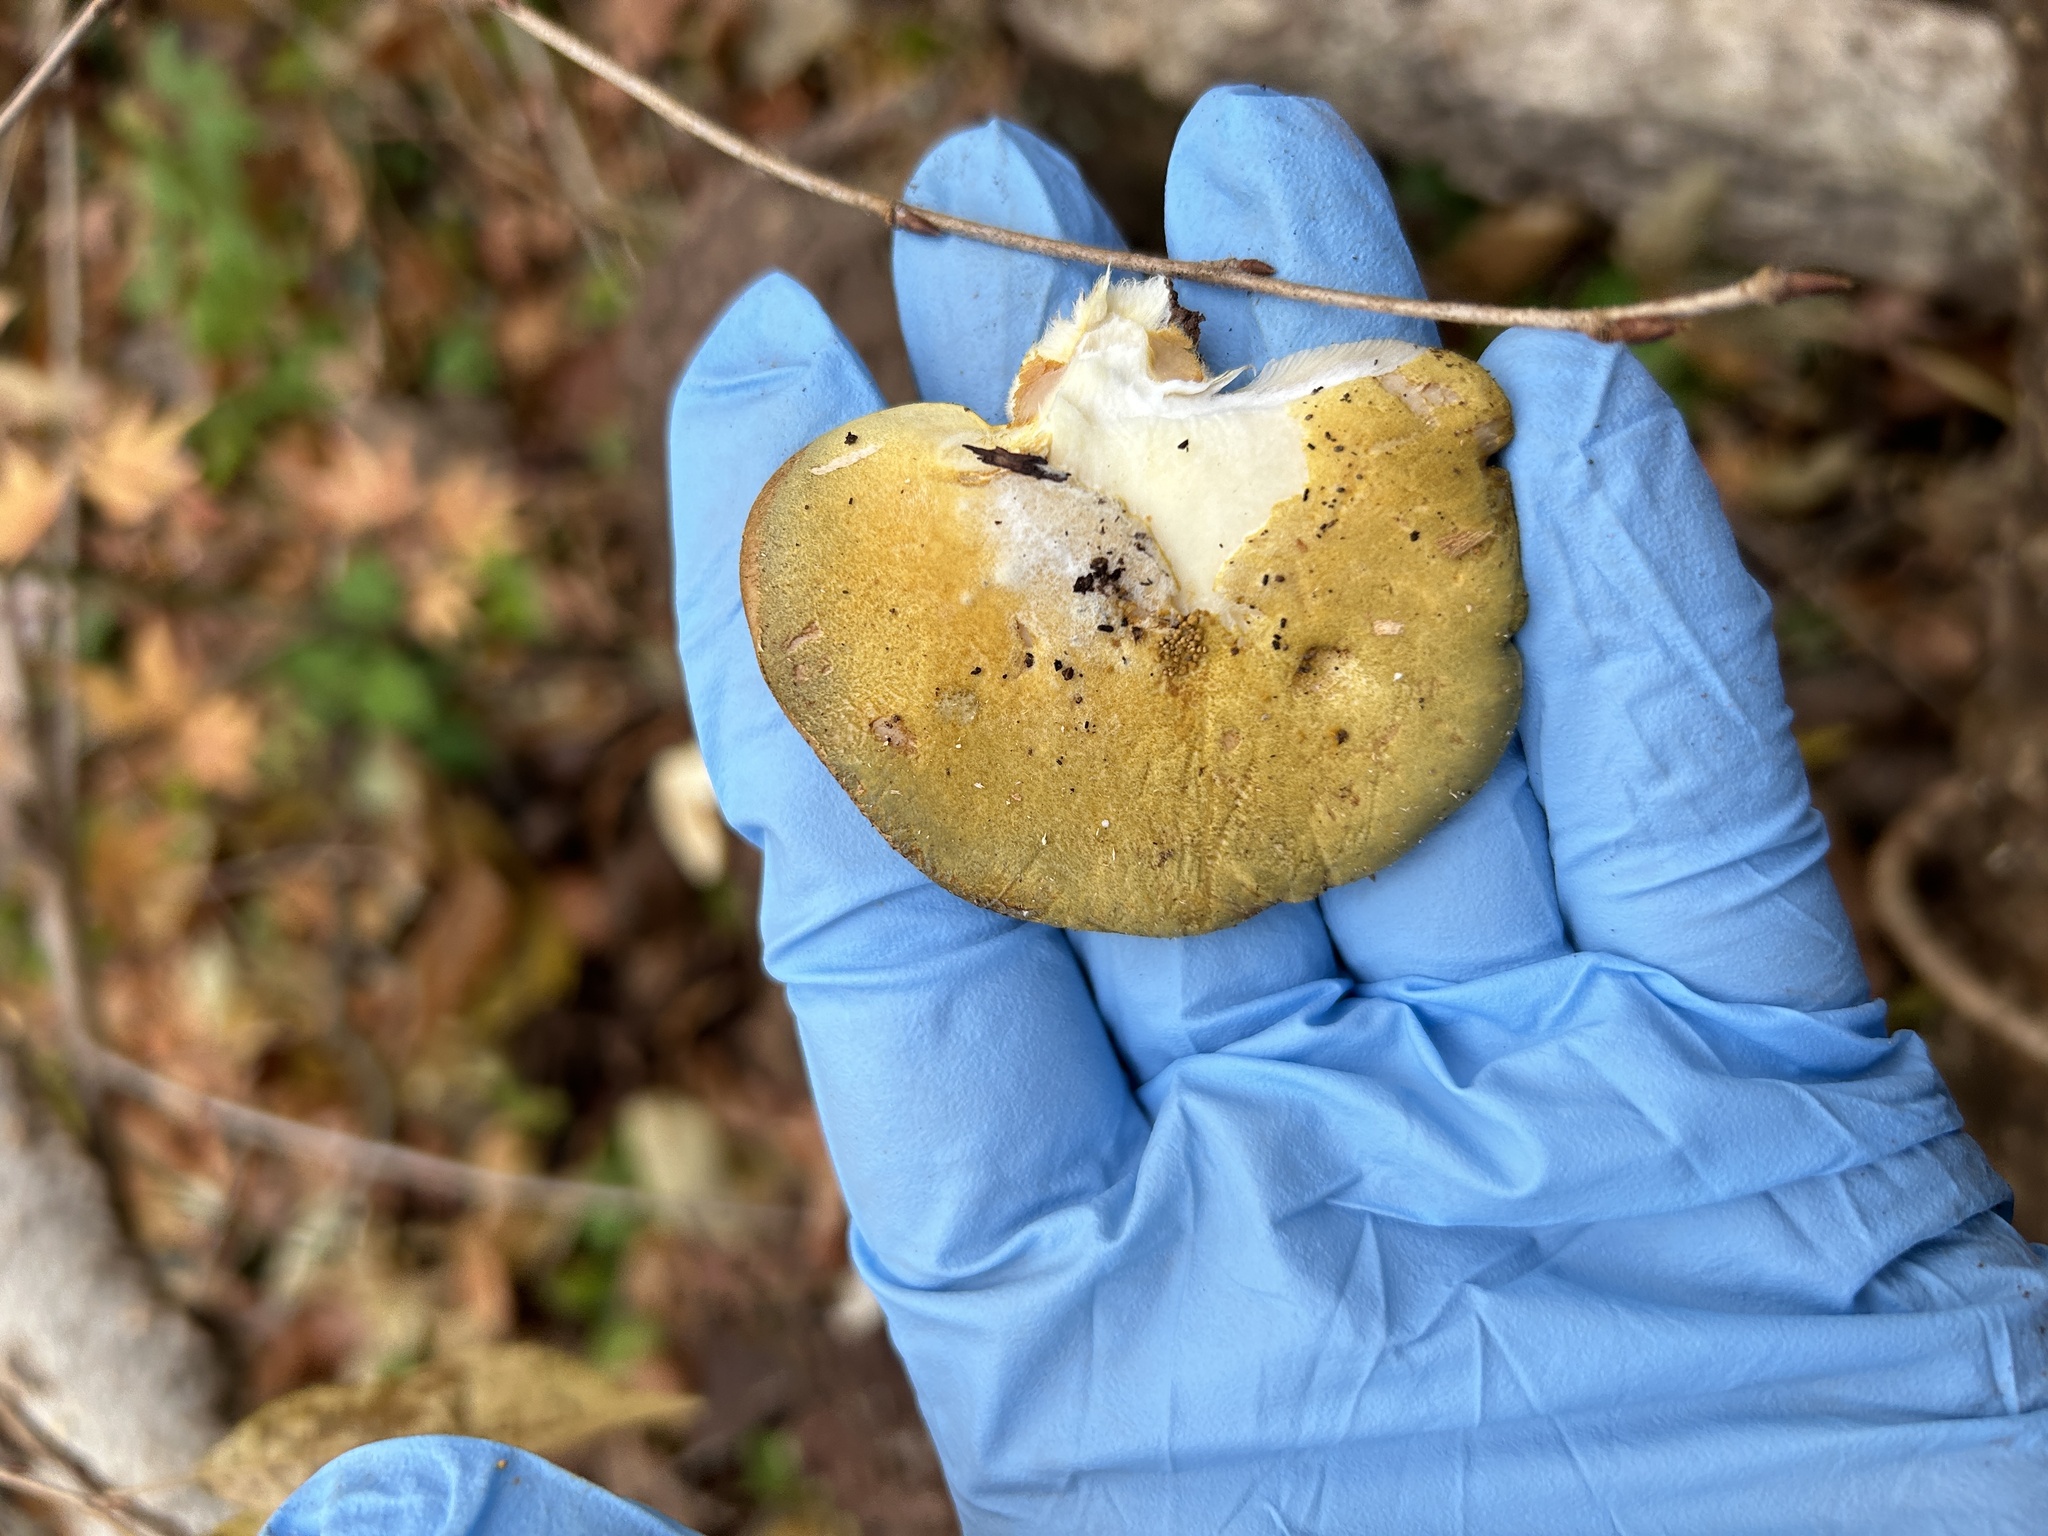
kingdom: Fungi
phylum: Basidiomycota
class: Agaricomycetes
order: Agaricales
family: Sarcomyxaceae
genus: Sarcomyxa
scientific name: Sarcomyxa serotina
